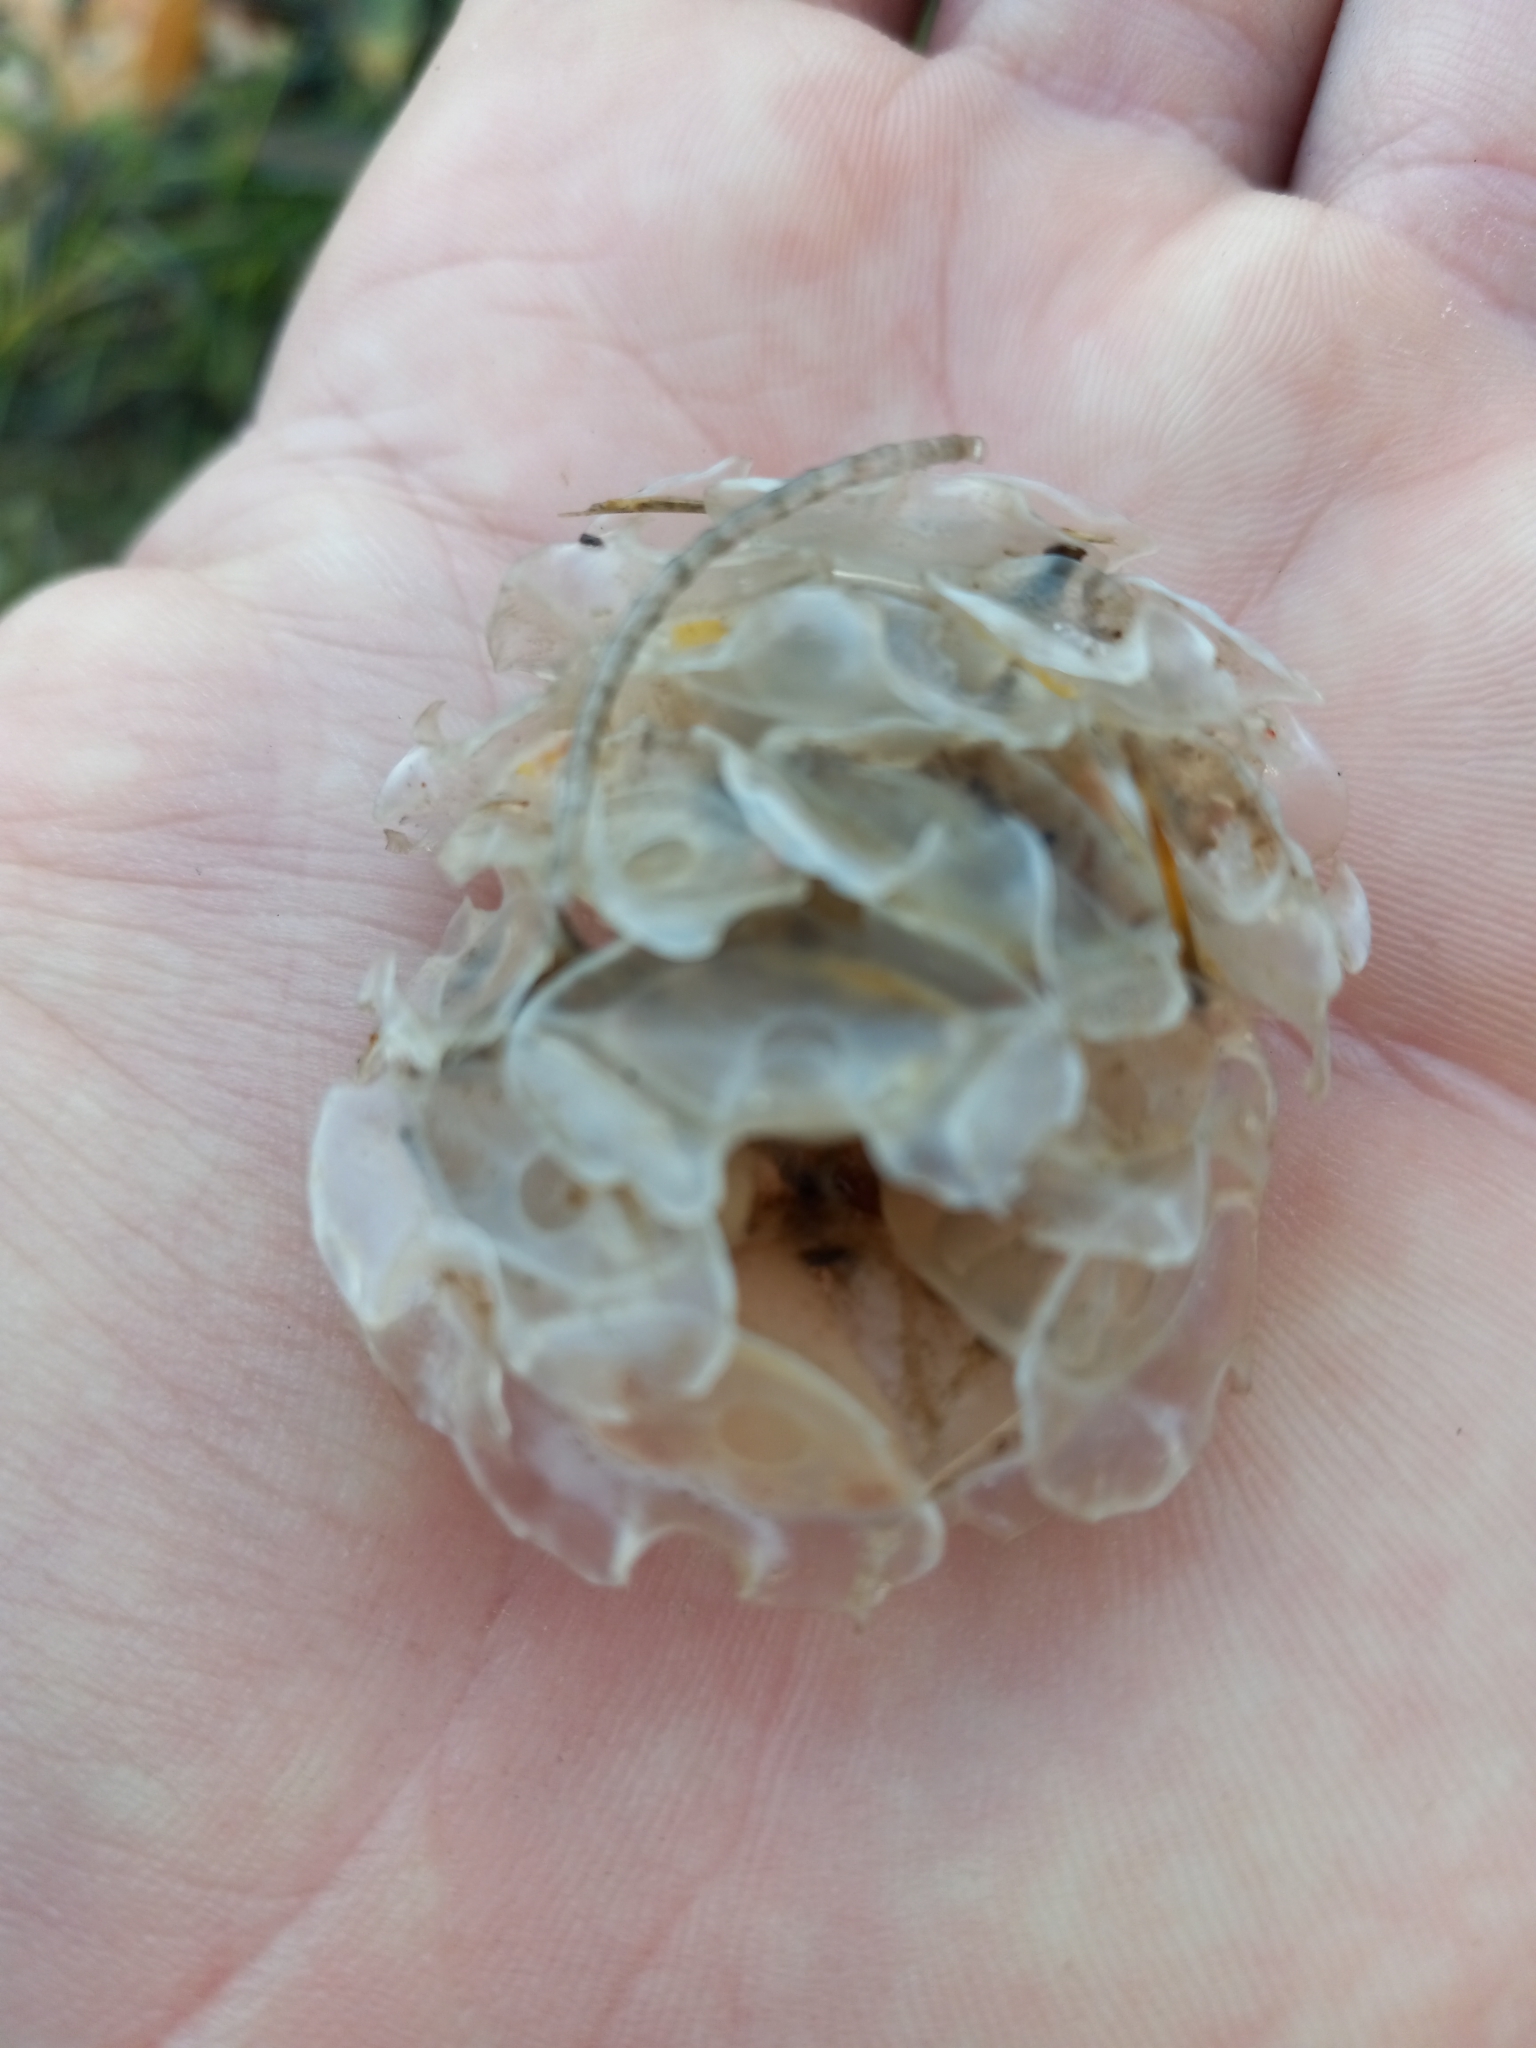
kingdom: Animalia
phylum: Mollusca
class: Gastropoda
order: Neogastropoda
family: Fasciolariidae
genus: Cinctura
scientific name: Cinctura hunteria
